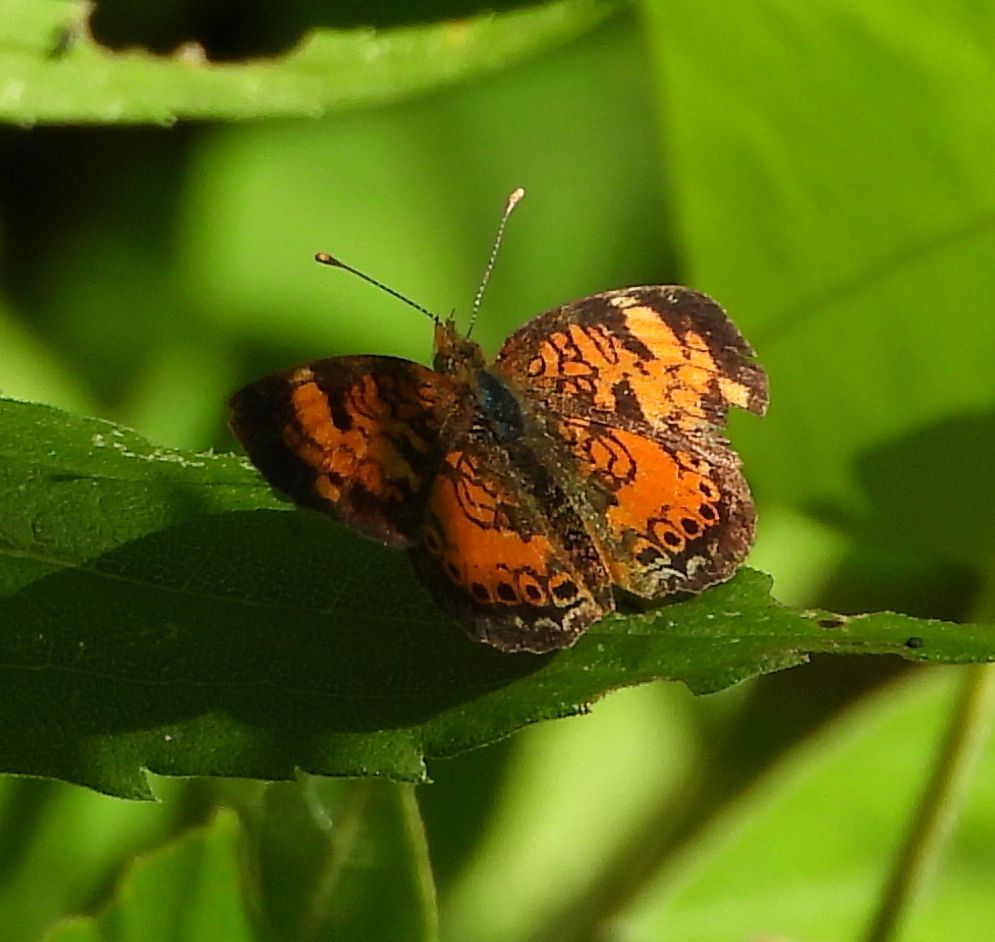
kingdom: Animalia
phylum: Arthropoda
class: Insecta
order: Lepidoptera
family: Nymphalidae
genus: Phyciodes
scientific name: Phyciodes tharos
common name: Pearl crescent
